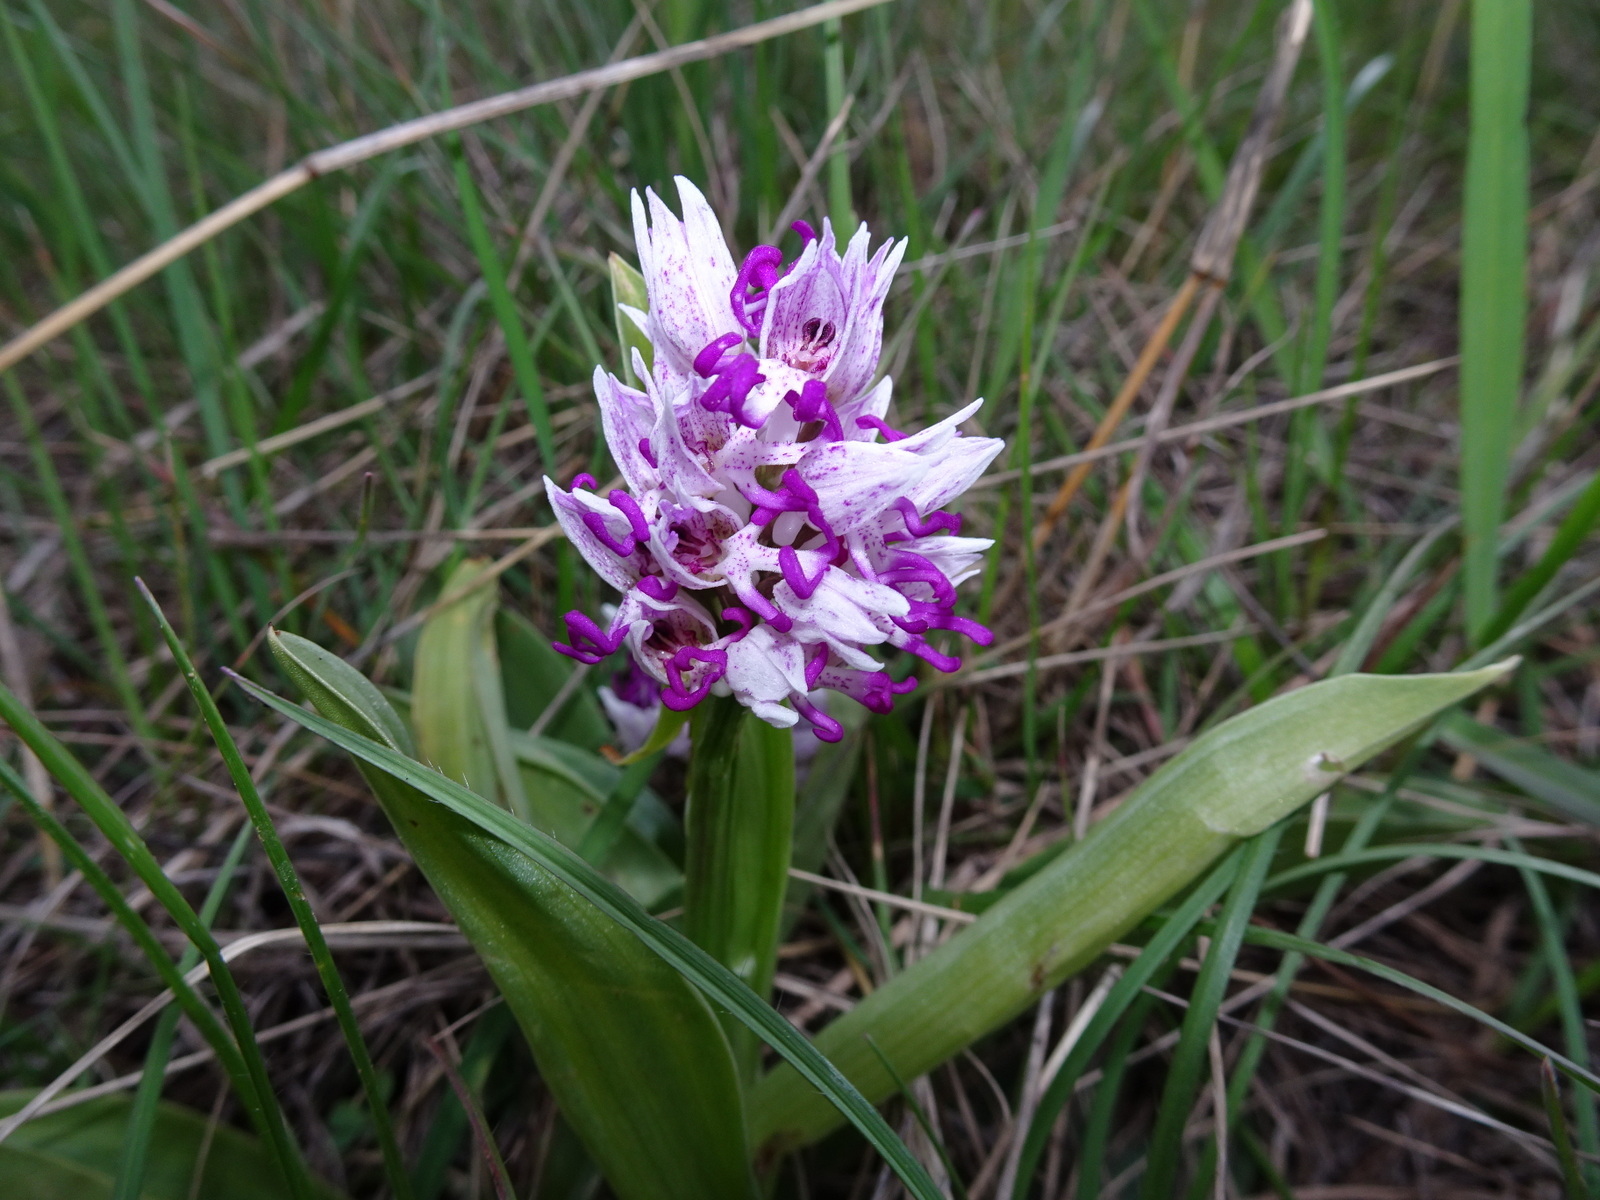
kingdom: Plantae
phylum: Tracheophyta
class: Liliopsida
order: Asparagales
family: Orchidaceae
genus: Orchis
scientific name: Orchis simia
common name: Monkey orchid
